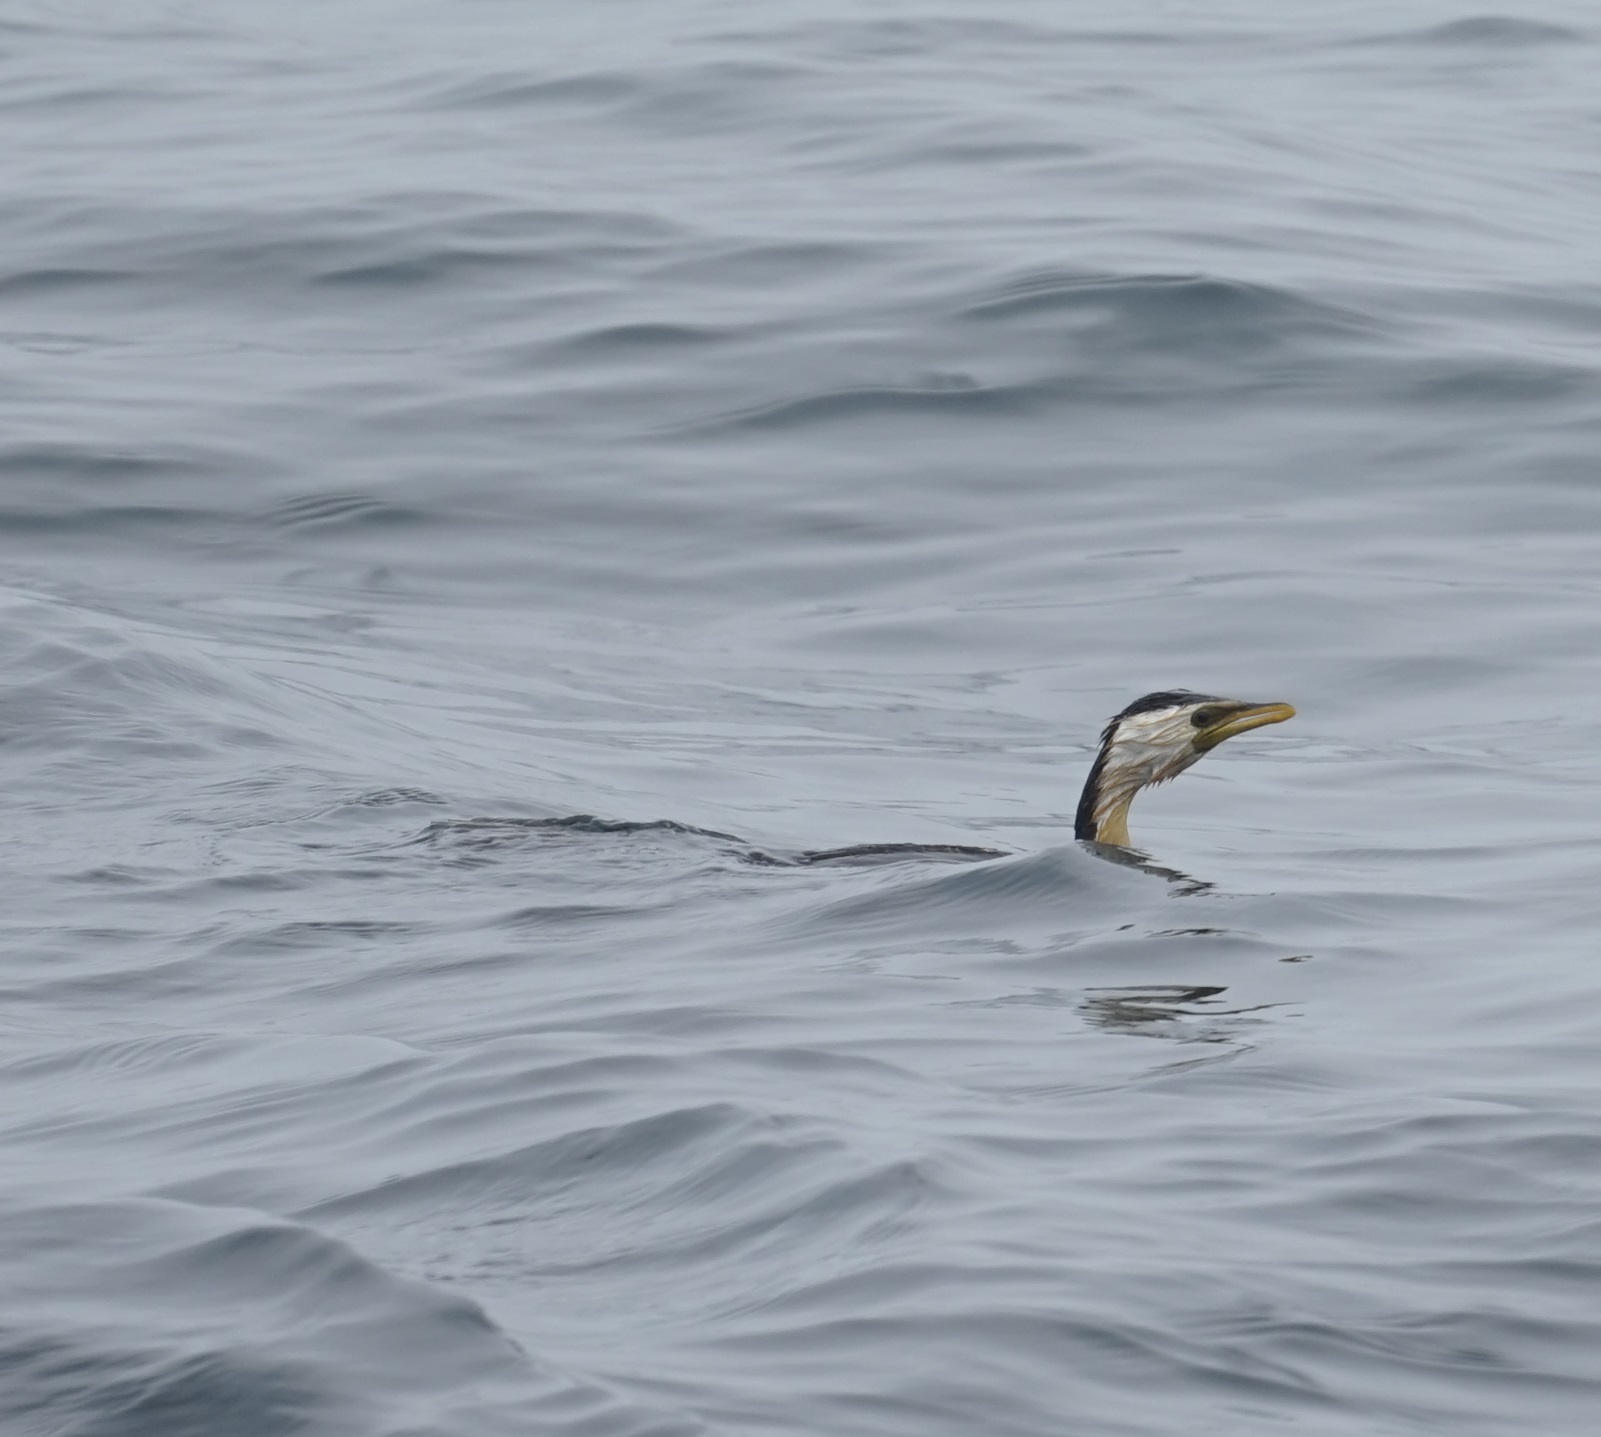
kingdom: Animalia
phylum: Chordata
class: Aves
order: Suliformes
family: Phalacrocoracidae
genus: Microcarbo
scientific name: Microcarbo melanoleucos
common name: Little pied cormorant
